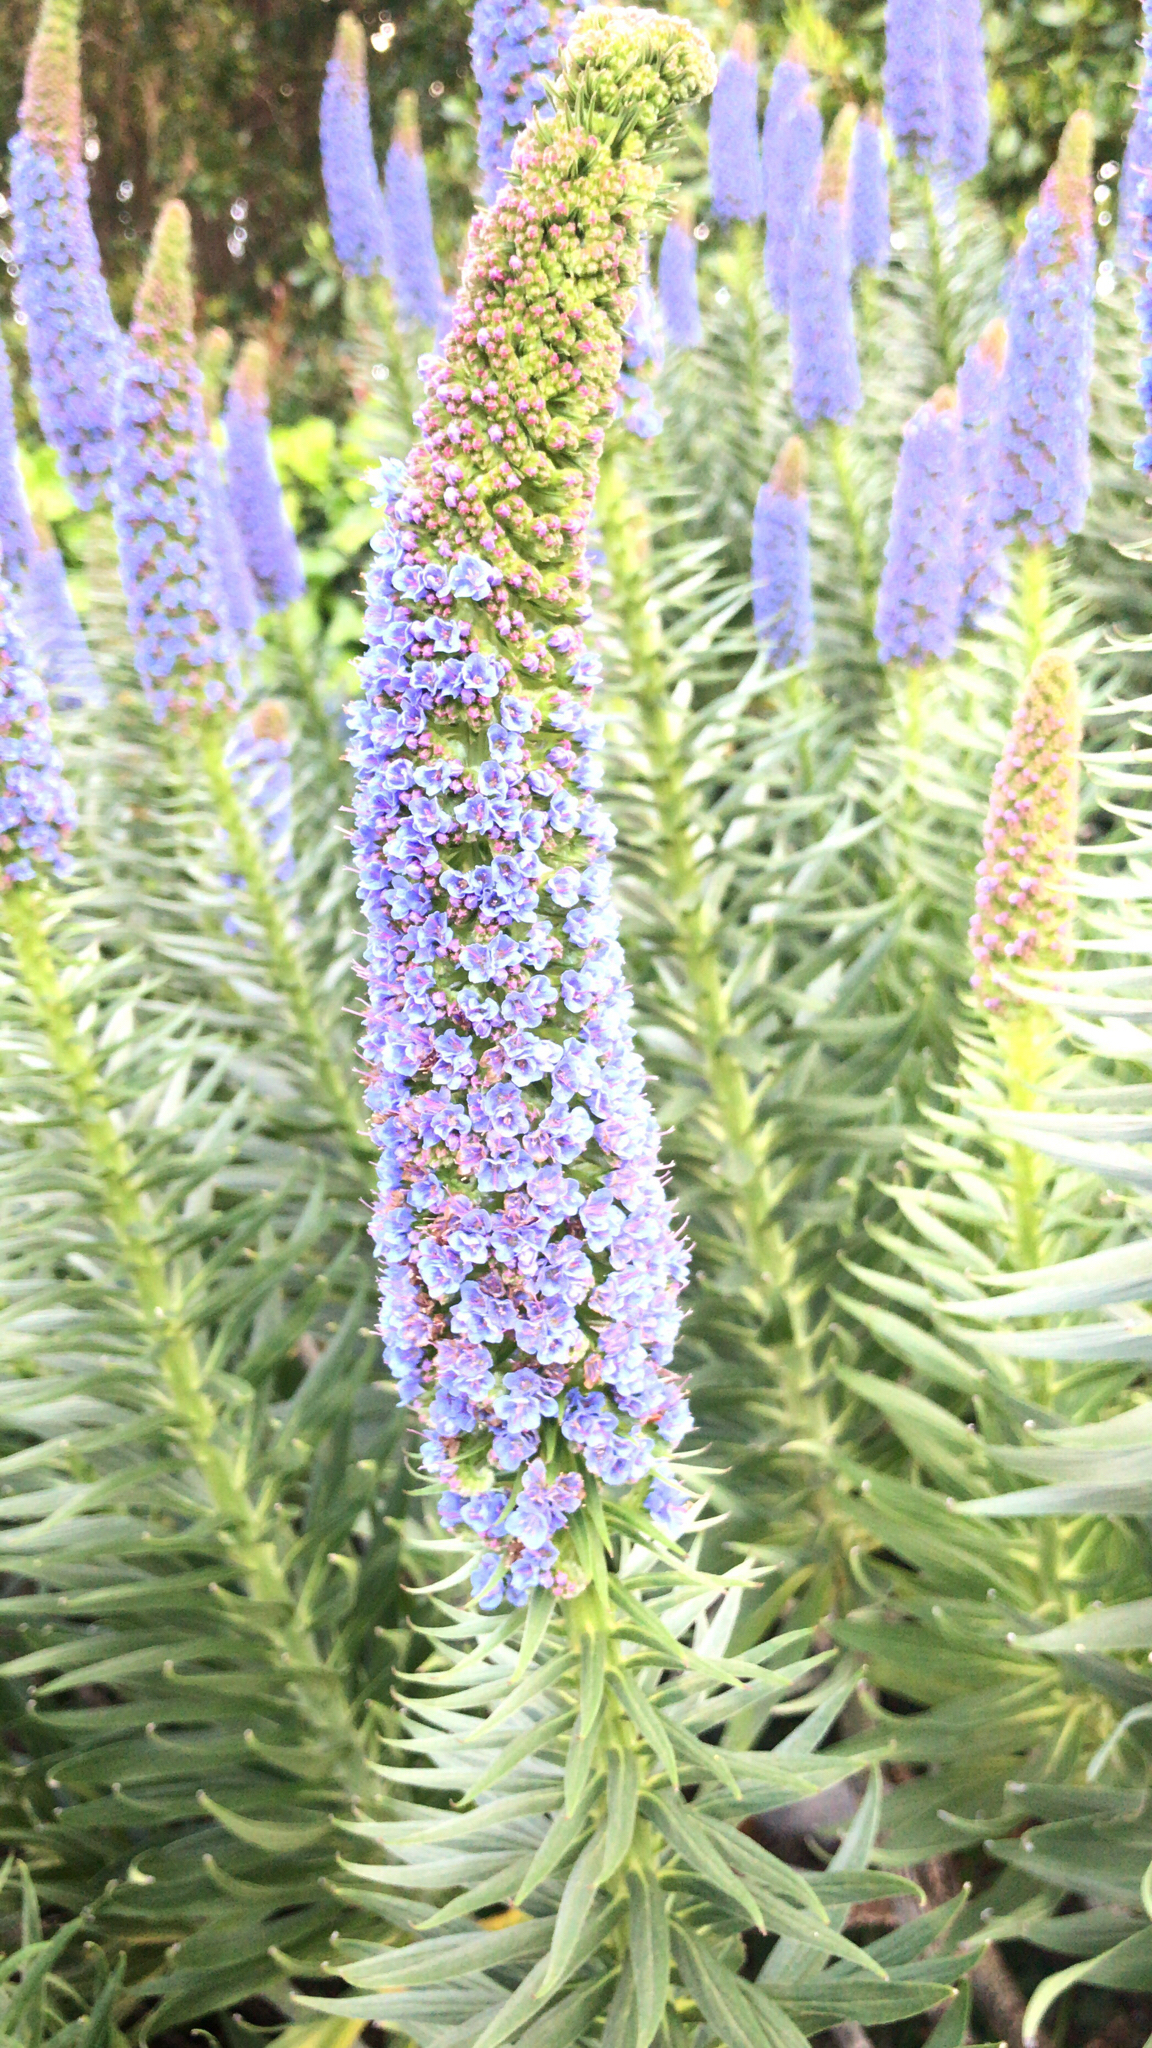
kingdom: Plantae
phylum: Tracheophyta
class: Magnoliopsida
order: Boraginales
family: Boraginaceae
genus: Echium
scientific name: Echium candicans
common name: Pride of madeira
